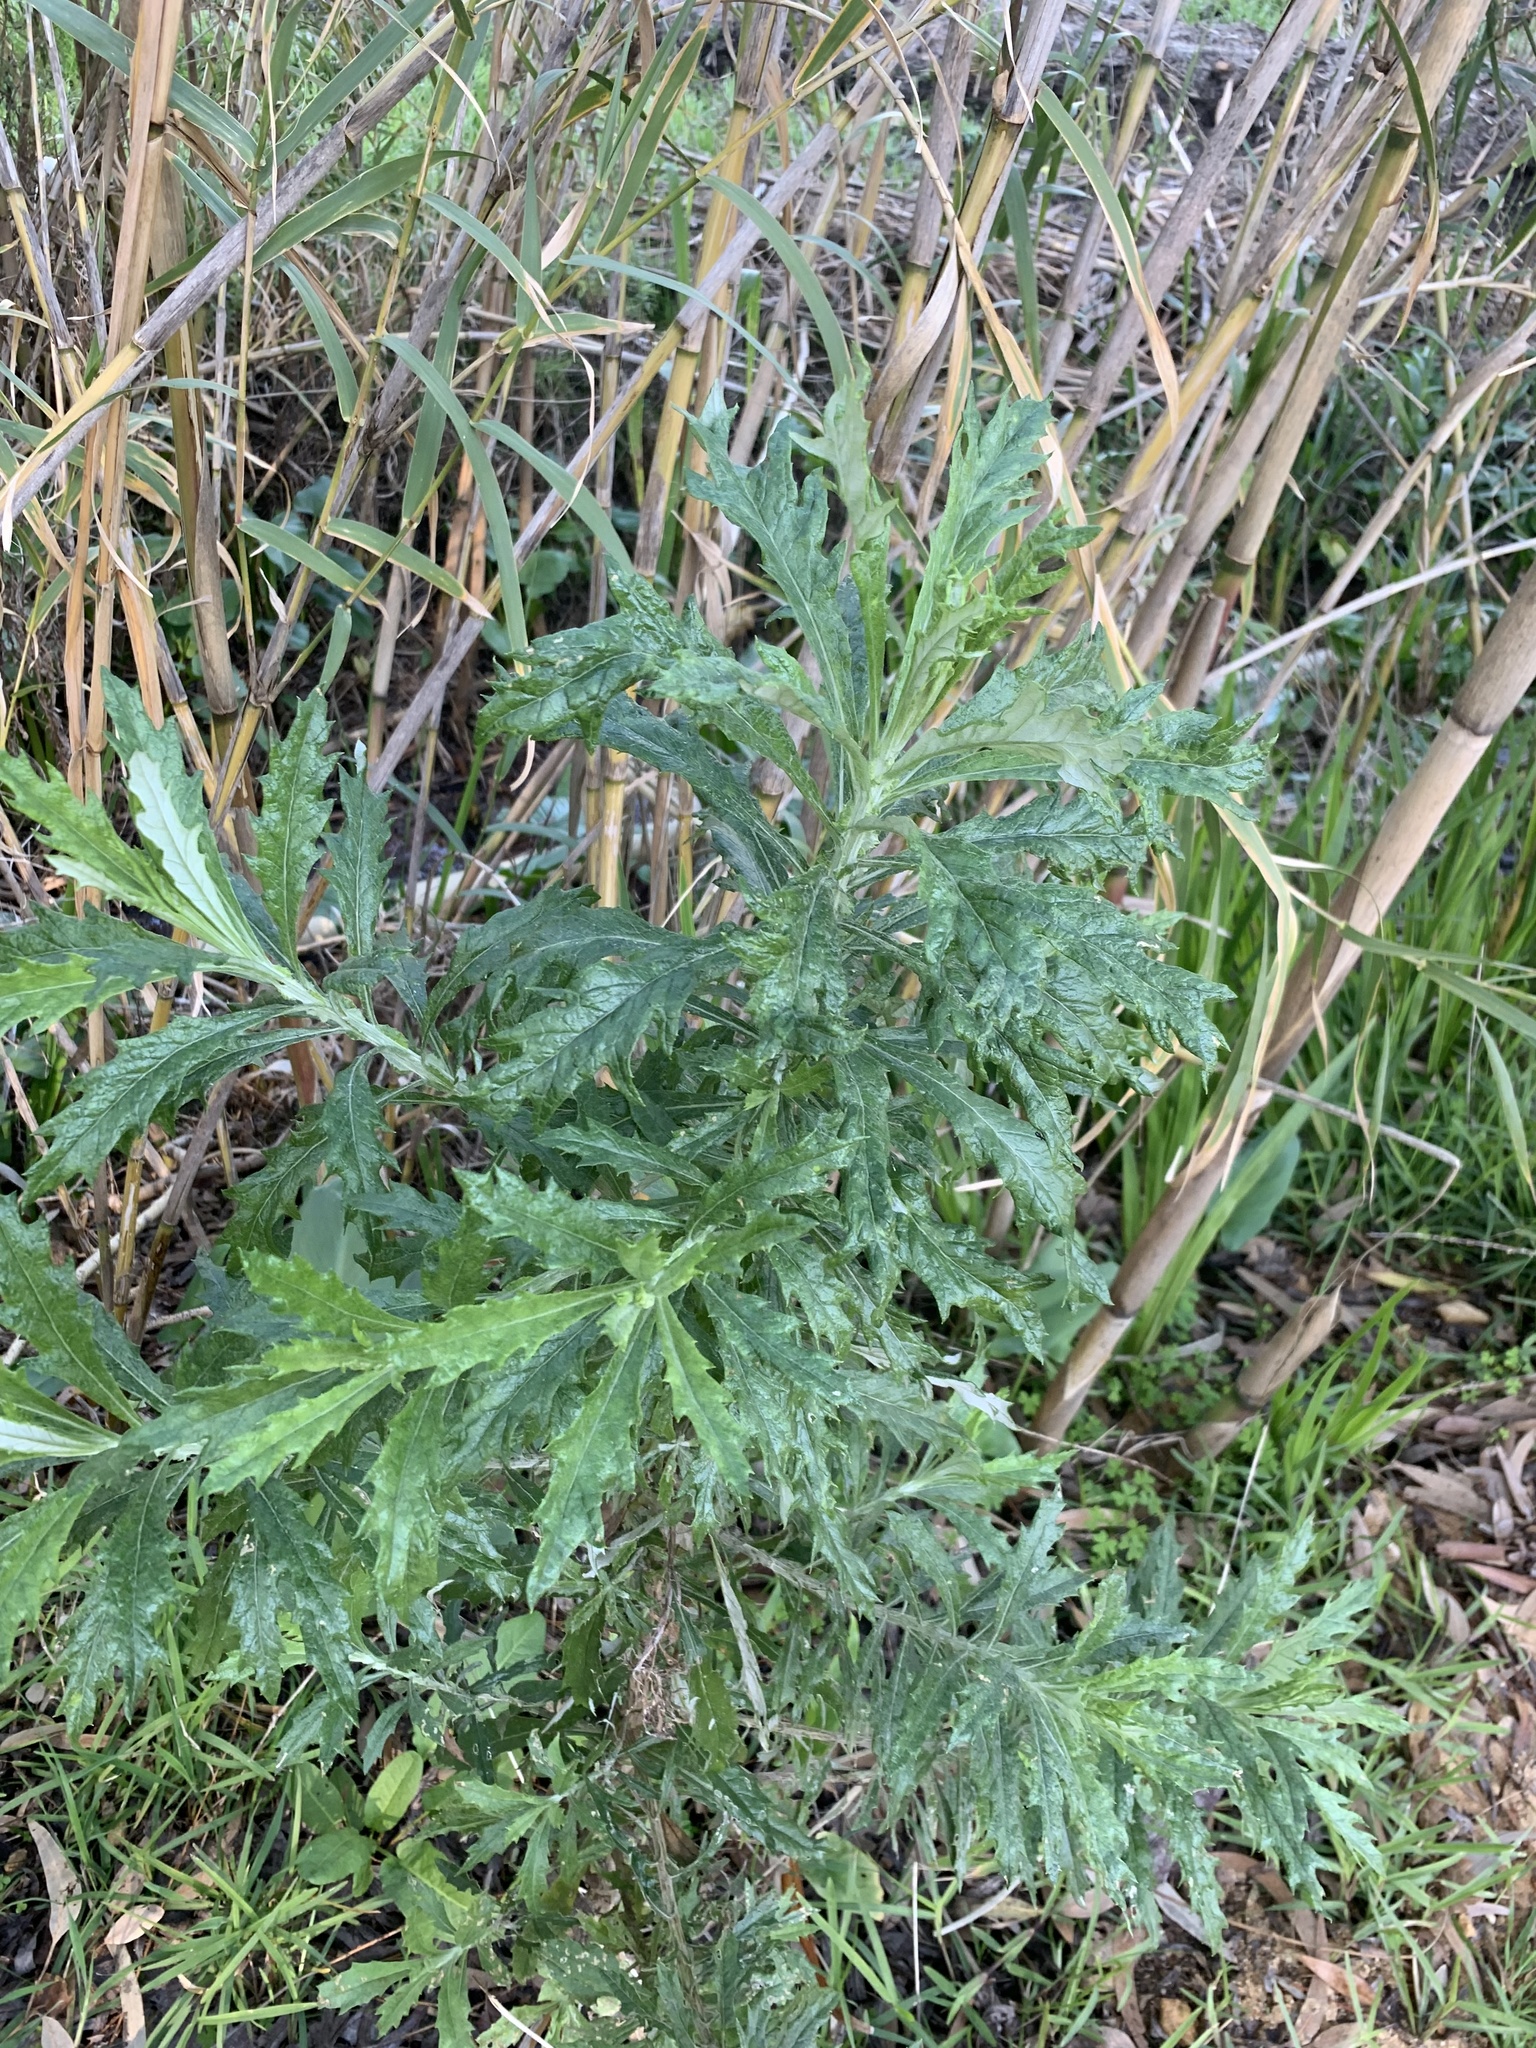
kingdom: Plantae
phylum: Tracheophyta
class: Magnoliopsida
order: Asterales
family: Asteraceae
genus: Senecio
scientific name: Senecio pterophorus
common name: Shoddy ragwort
